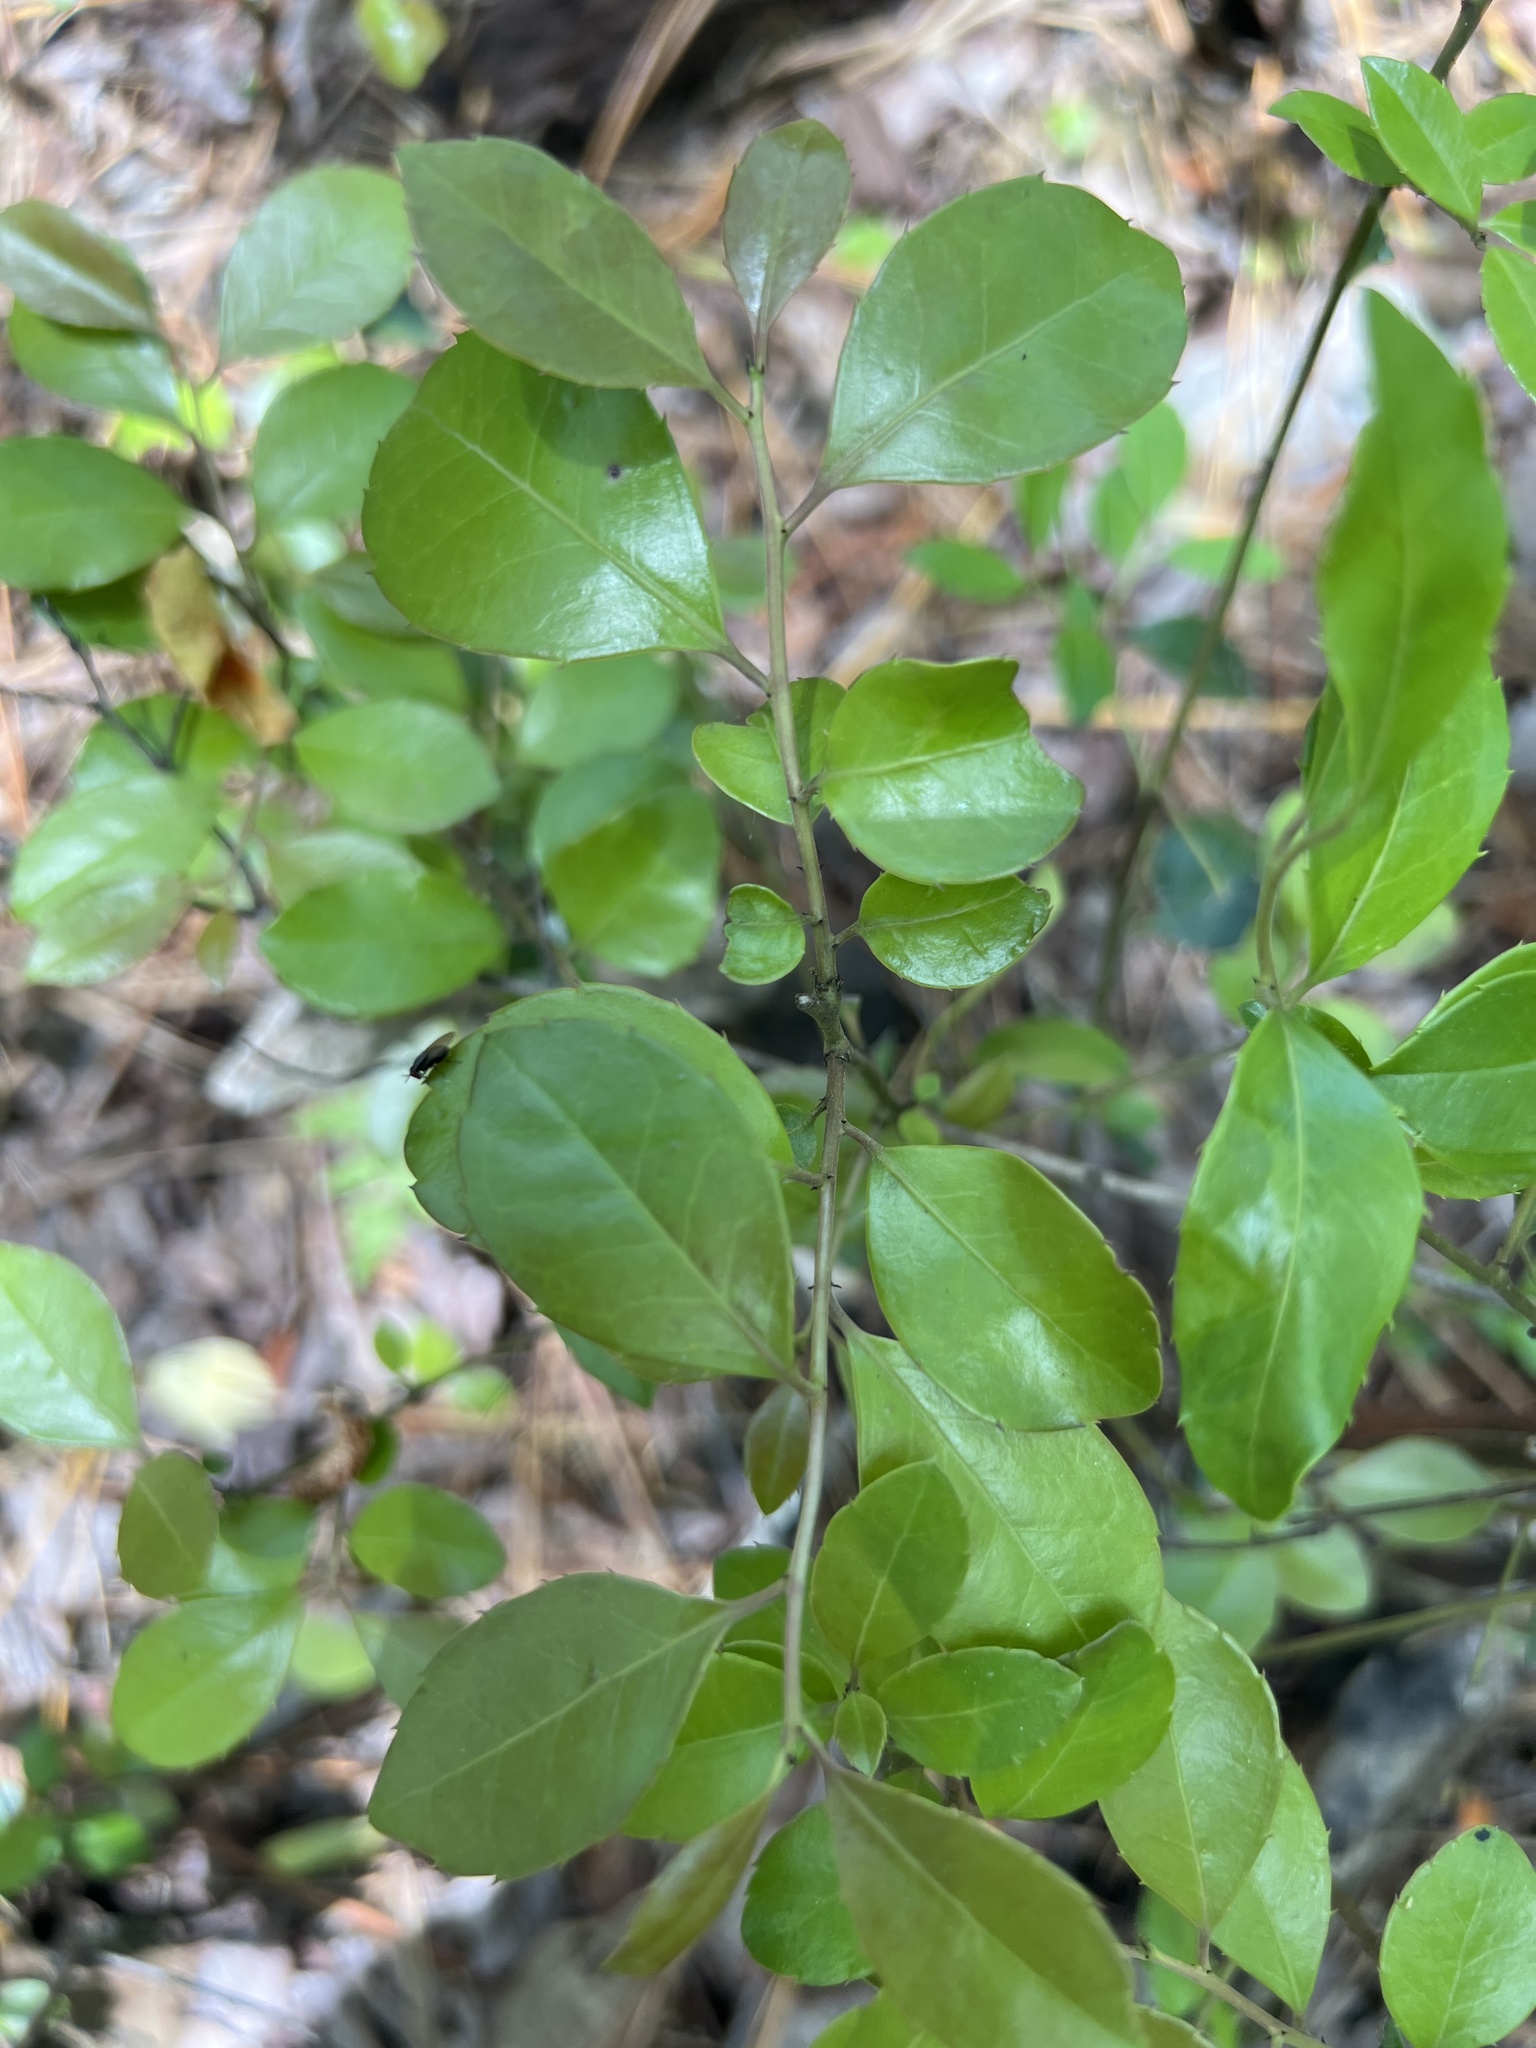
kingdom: Plantae
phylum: Tracheophyta
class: Magnoliopsida
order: Aquifoliales
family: Aquifoliaceae
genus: Ilex
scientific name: Ilex coriacea
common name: Sweet gallberry
